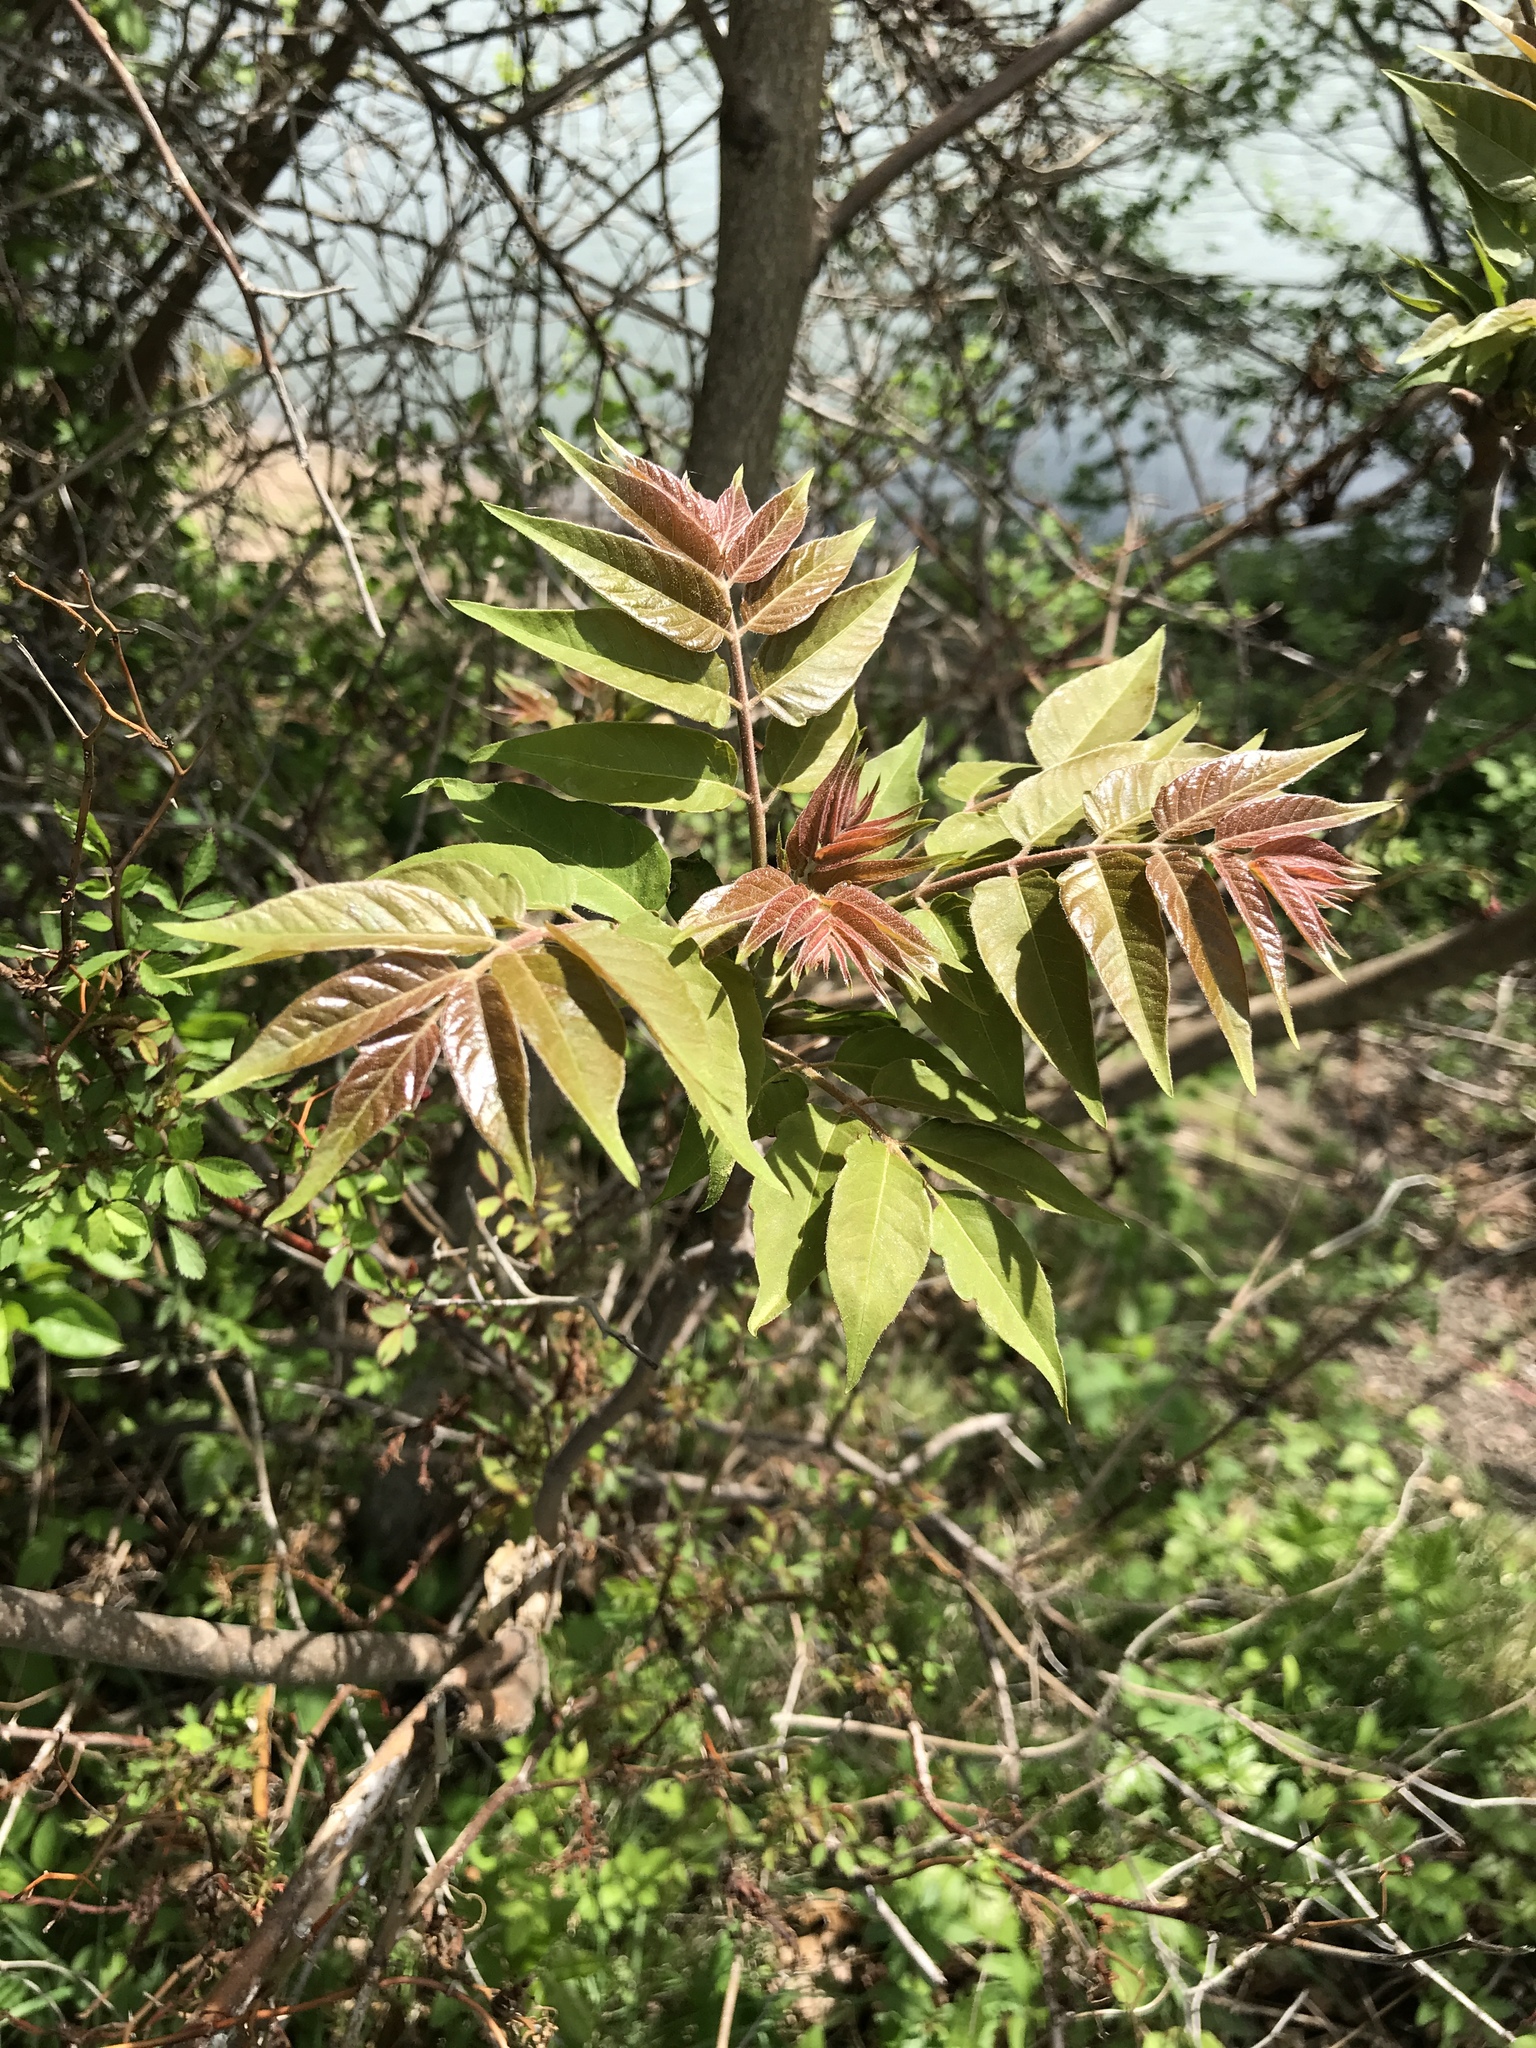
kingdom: Plantae
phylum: Tracheophyta
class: Magnoliopsida
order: Sapindales
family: Simaroubaceae
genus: Ailanthus
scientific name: Ailanthus altissima
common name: Tree-of-heaven
